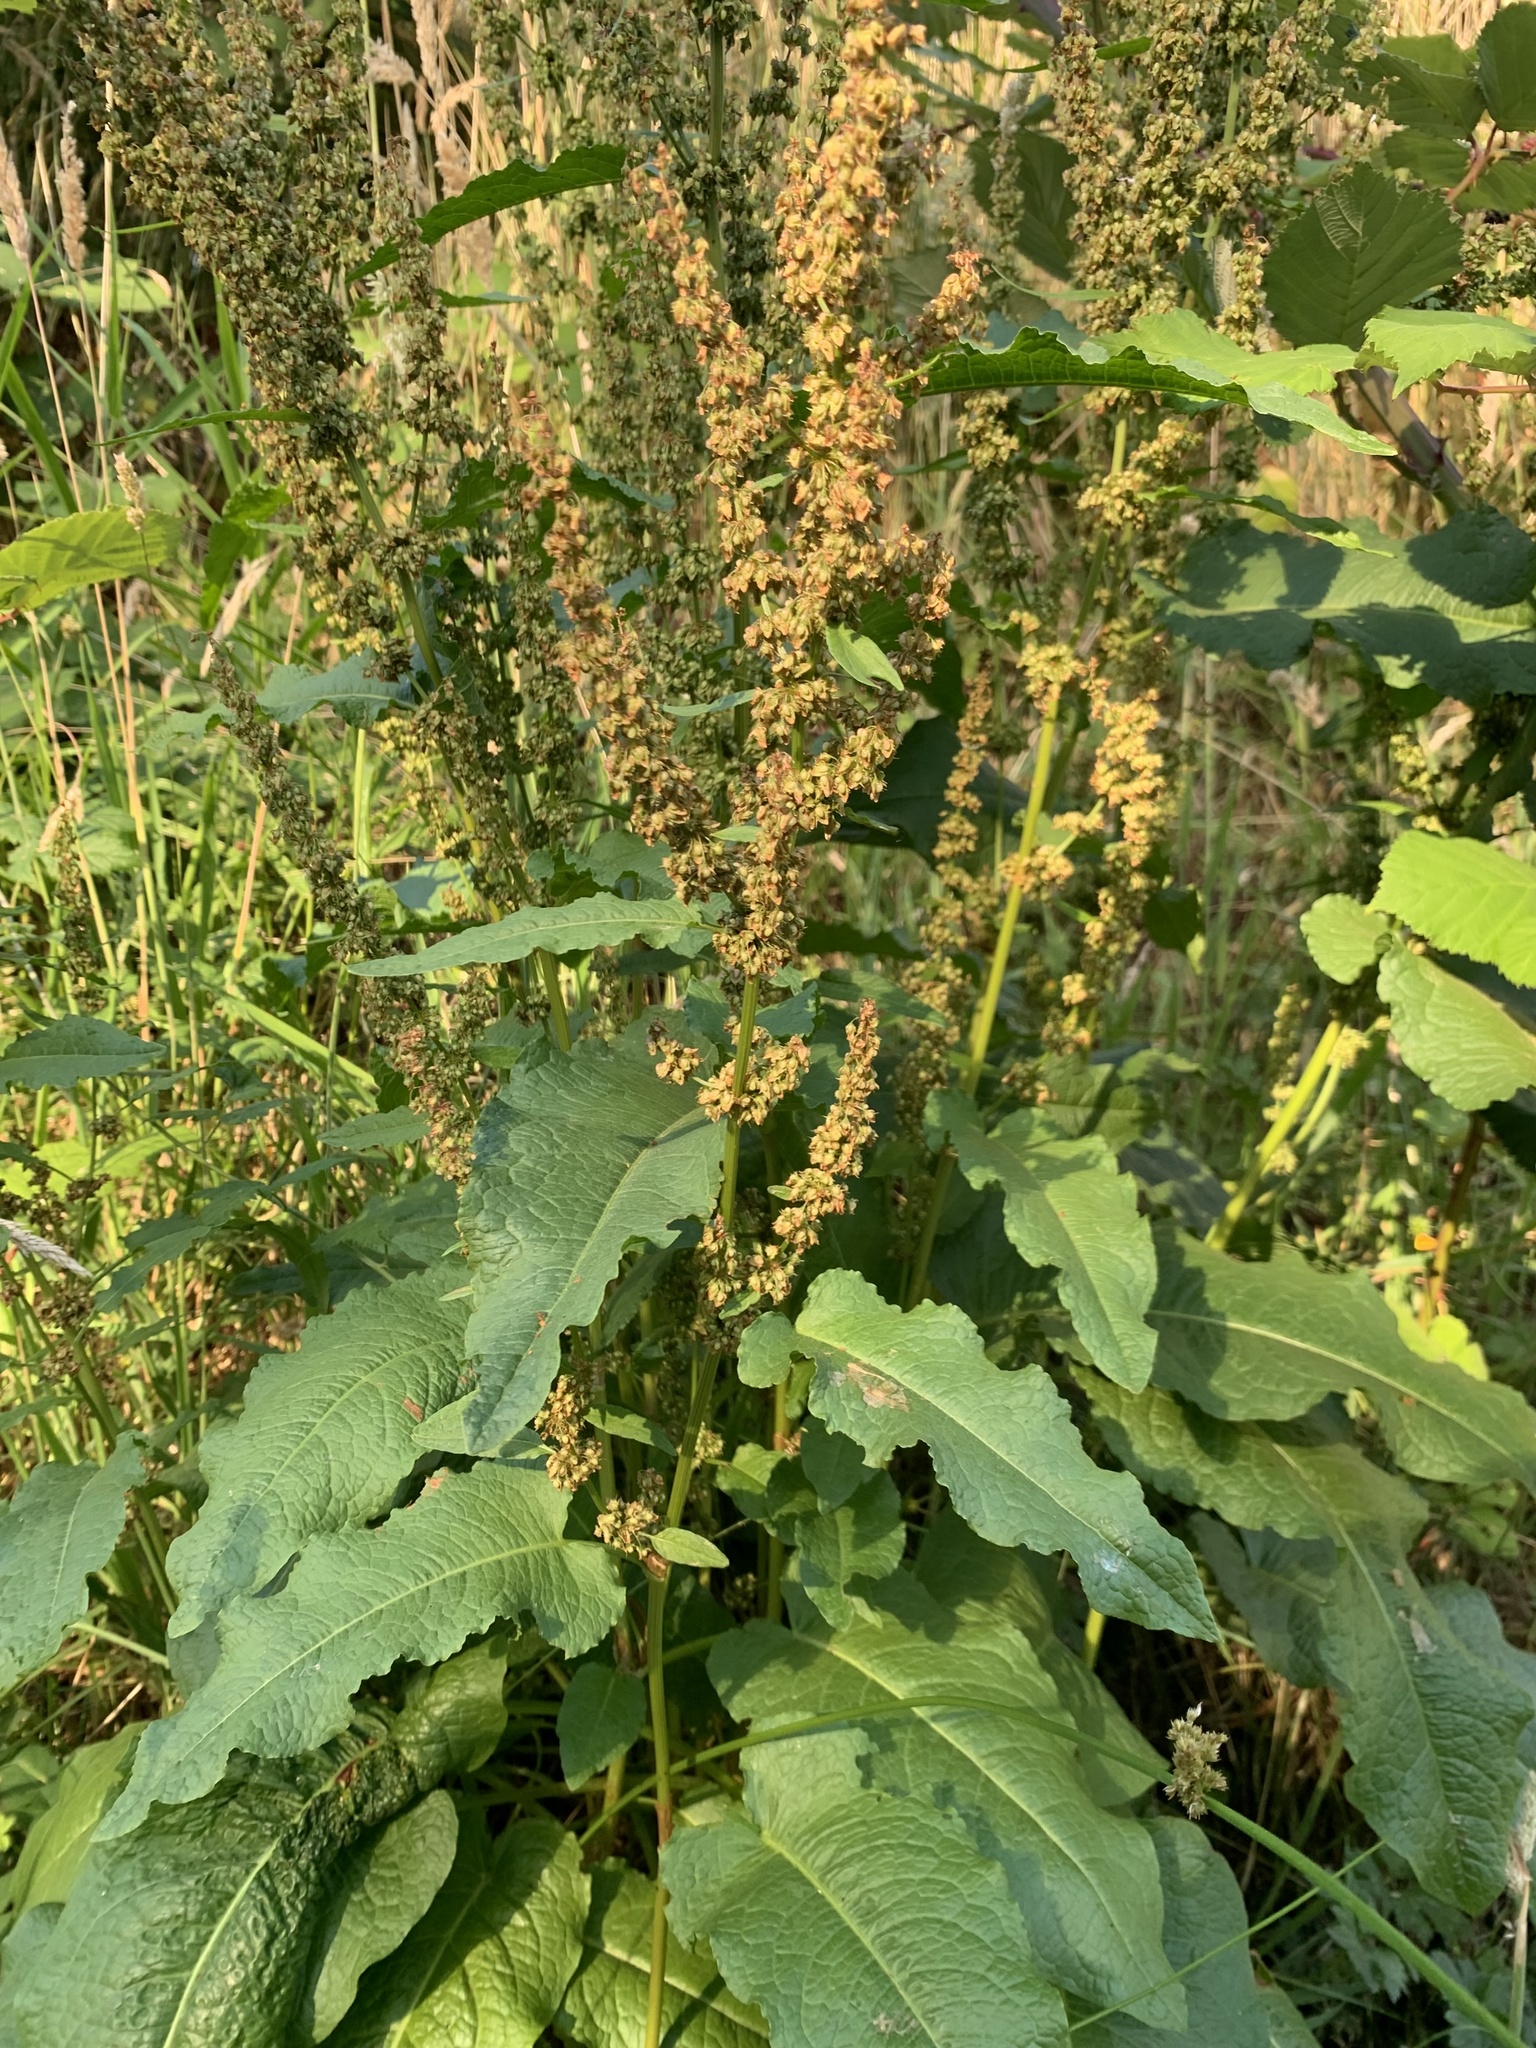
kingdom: Plantae
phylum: Tracheophyta
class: Magnoliopsida
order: Caryophyllales
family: Polygonaceae
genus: Rumex
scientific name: Rumex occidentalis
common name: Western dock
